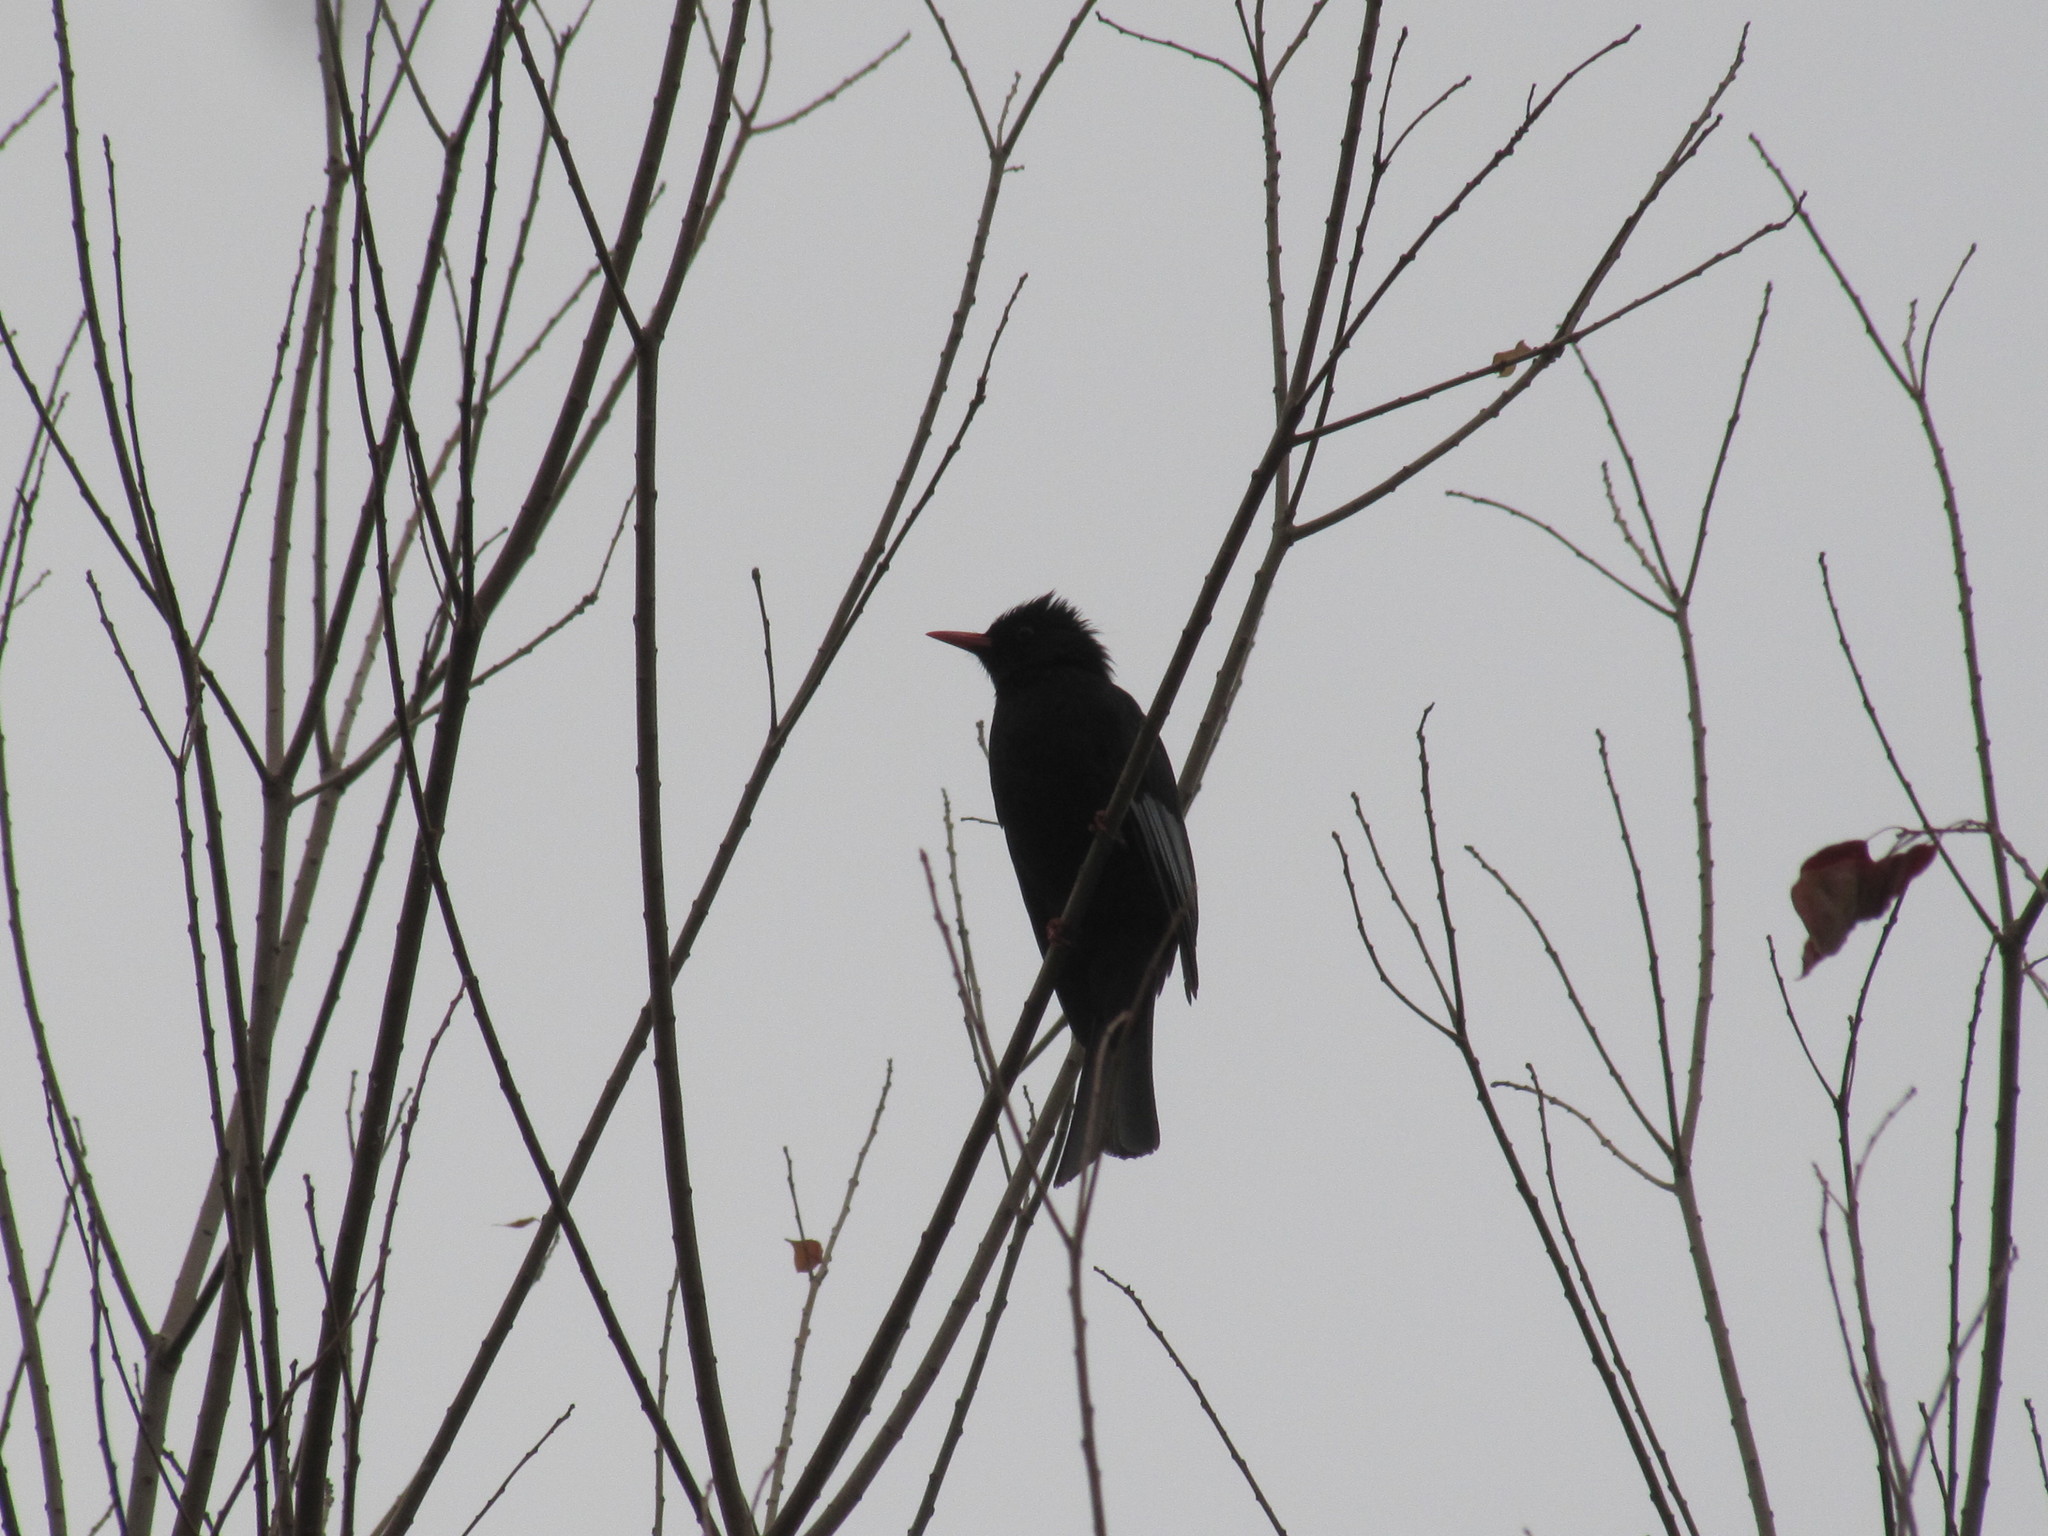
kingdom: Animalia
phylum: Chordata
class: Aves
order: Passeriformes
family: Pycnonotidae
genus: Hypsipetes
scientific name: Hypsipetes leucocephalus
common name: Black bulbul
